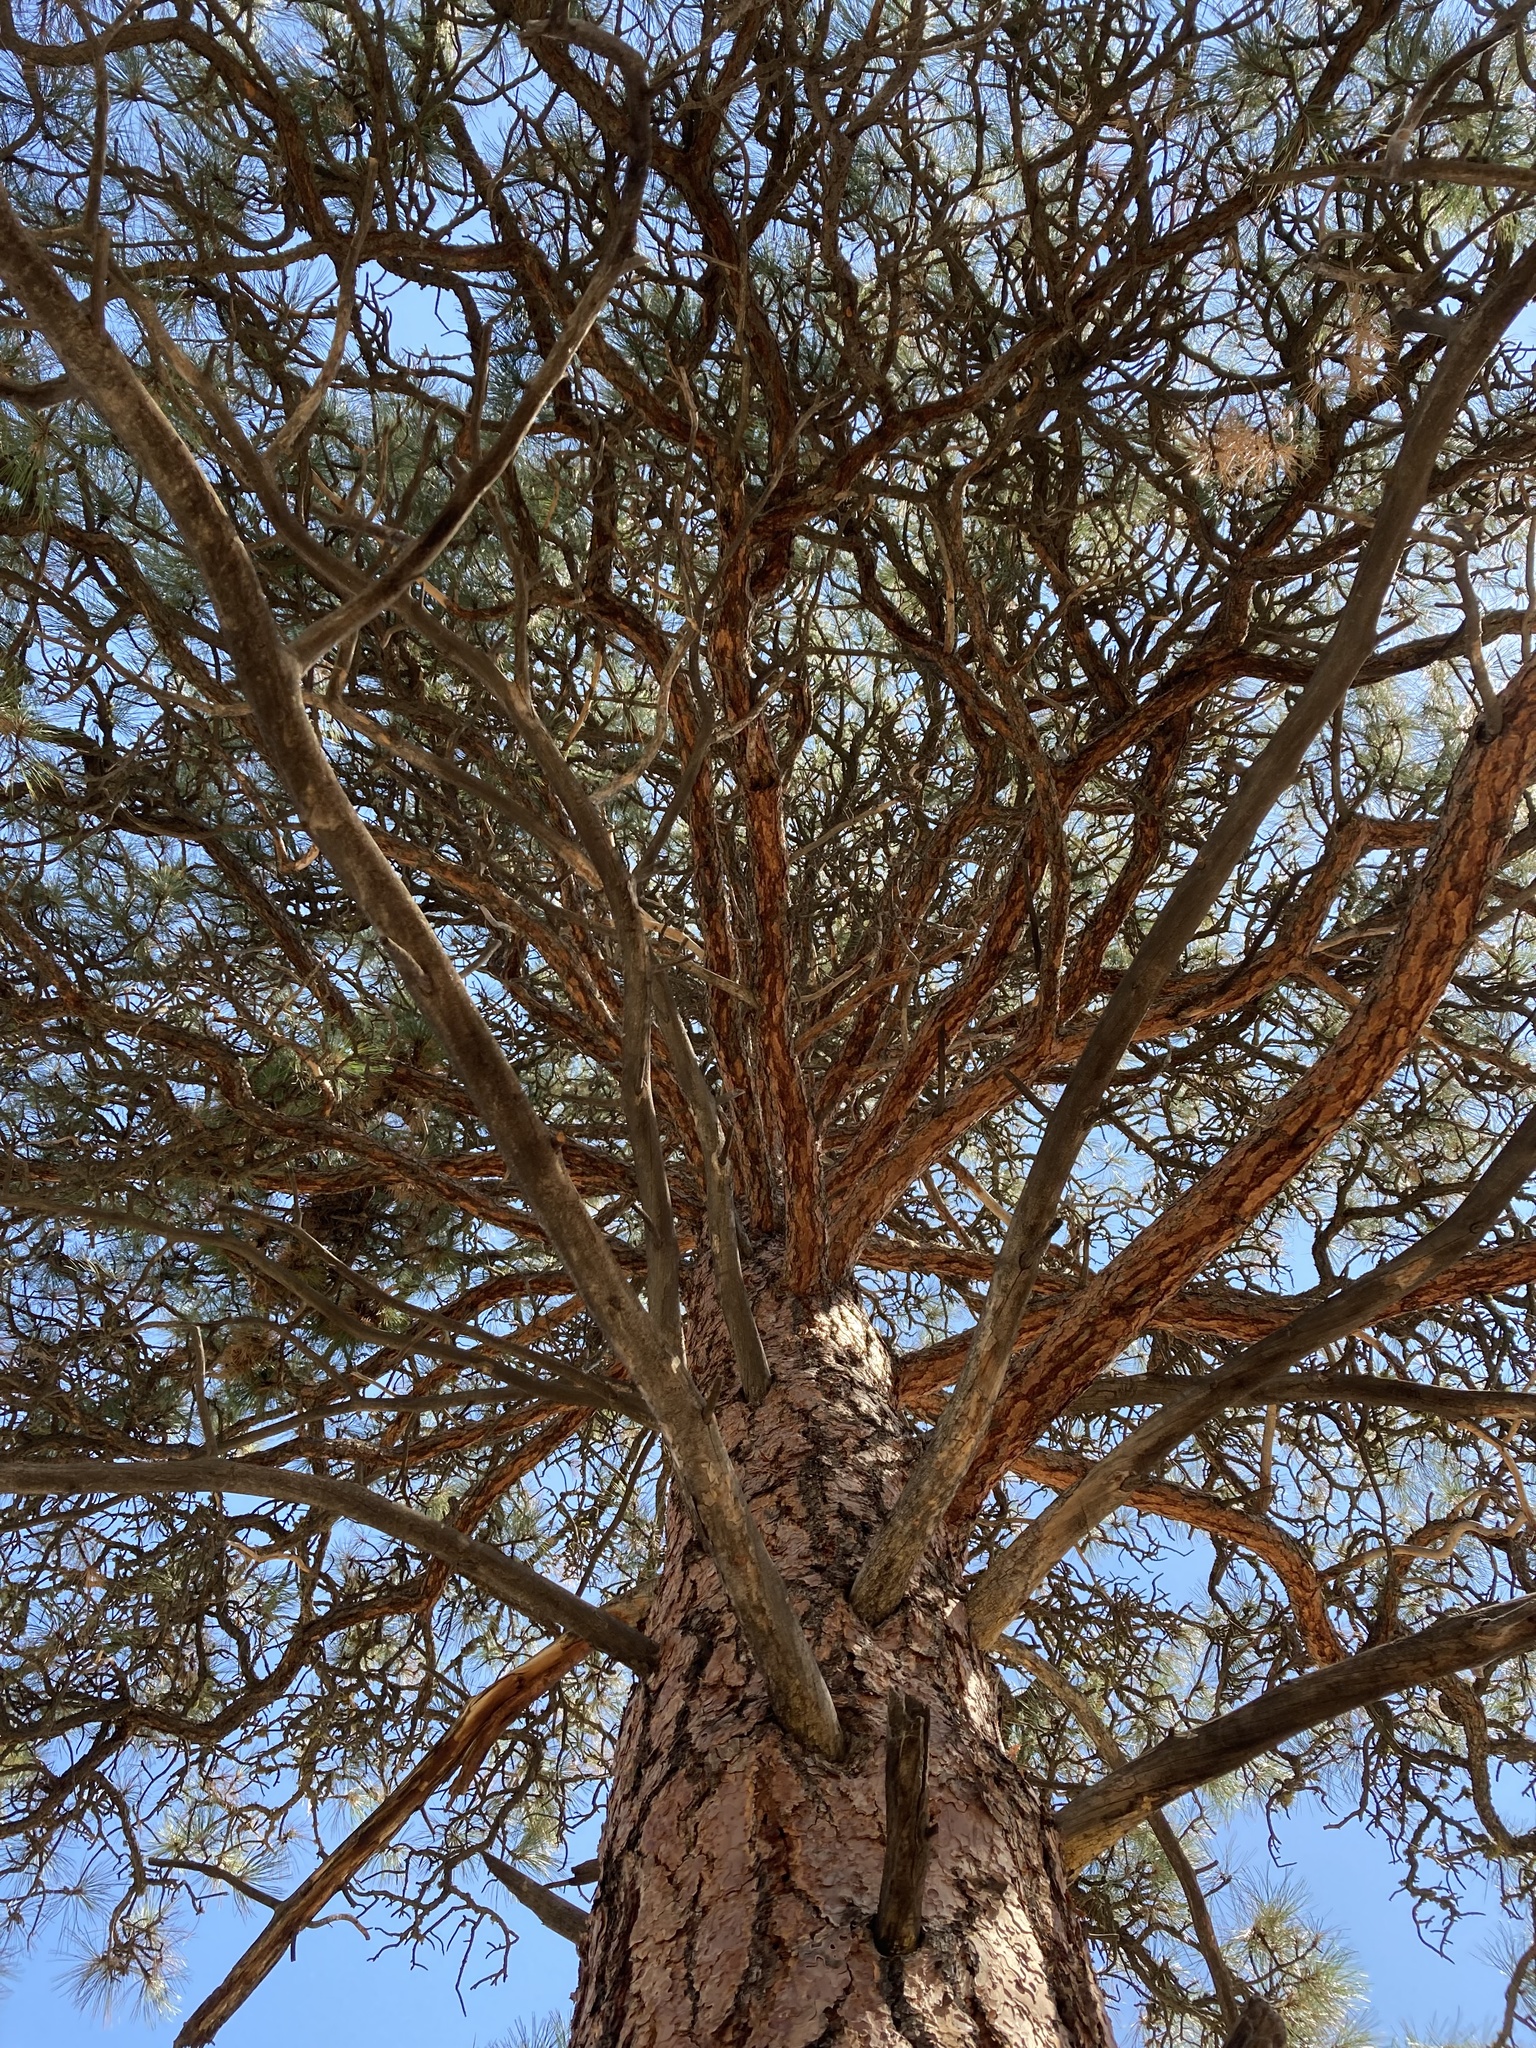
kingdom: Plantae
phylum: Tracheophyta
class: Pinopsida
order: Pinales
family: Pinaceae
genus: Pinus
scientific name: Pinus ponderosa
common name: Western yellow-pine
